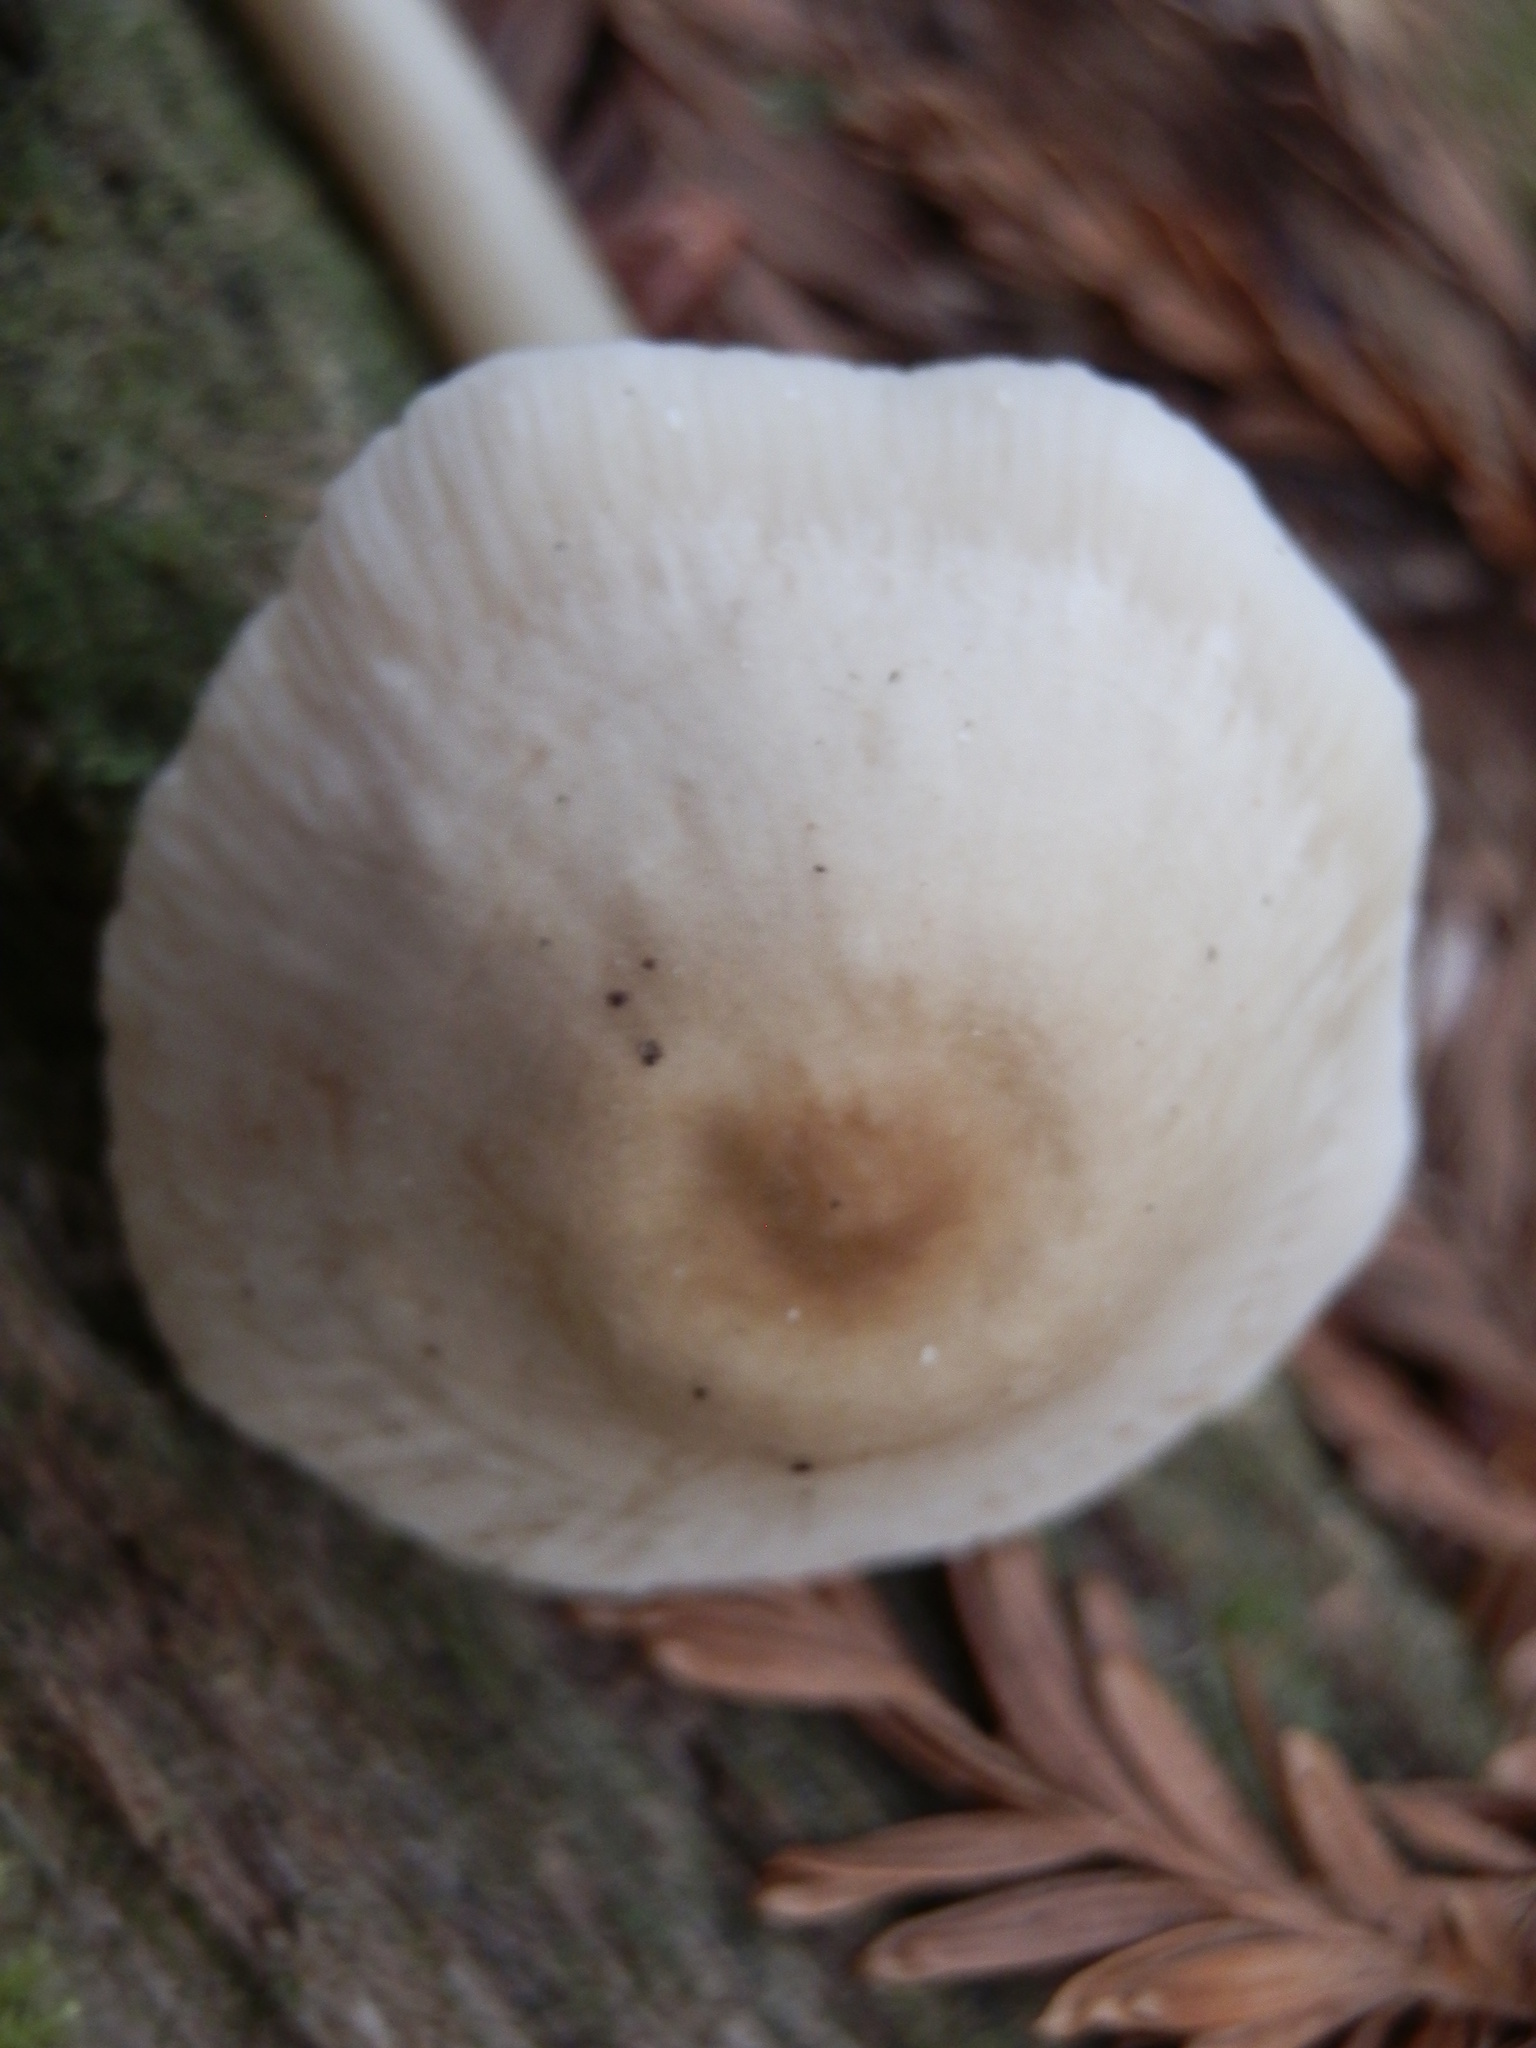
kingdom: Fungi
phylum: Basidiomycota
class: Agaricomycetes
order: Agaricales
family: Mycenaceae
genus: Mycena
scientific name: Mycena galericulata
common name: Bonnet mycena
